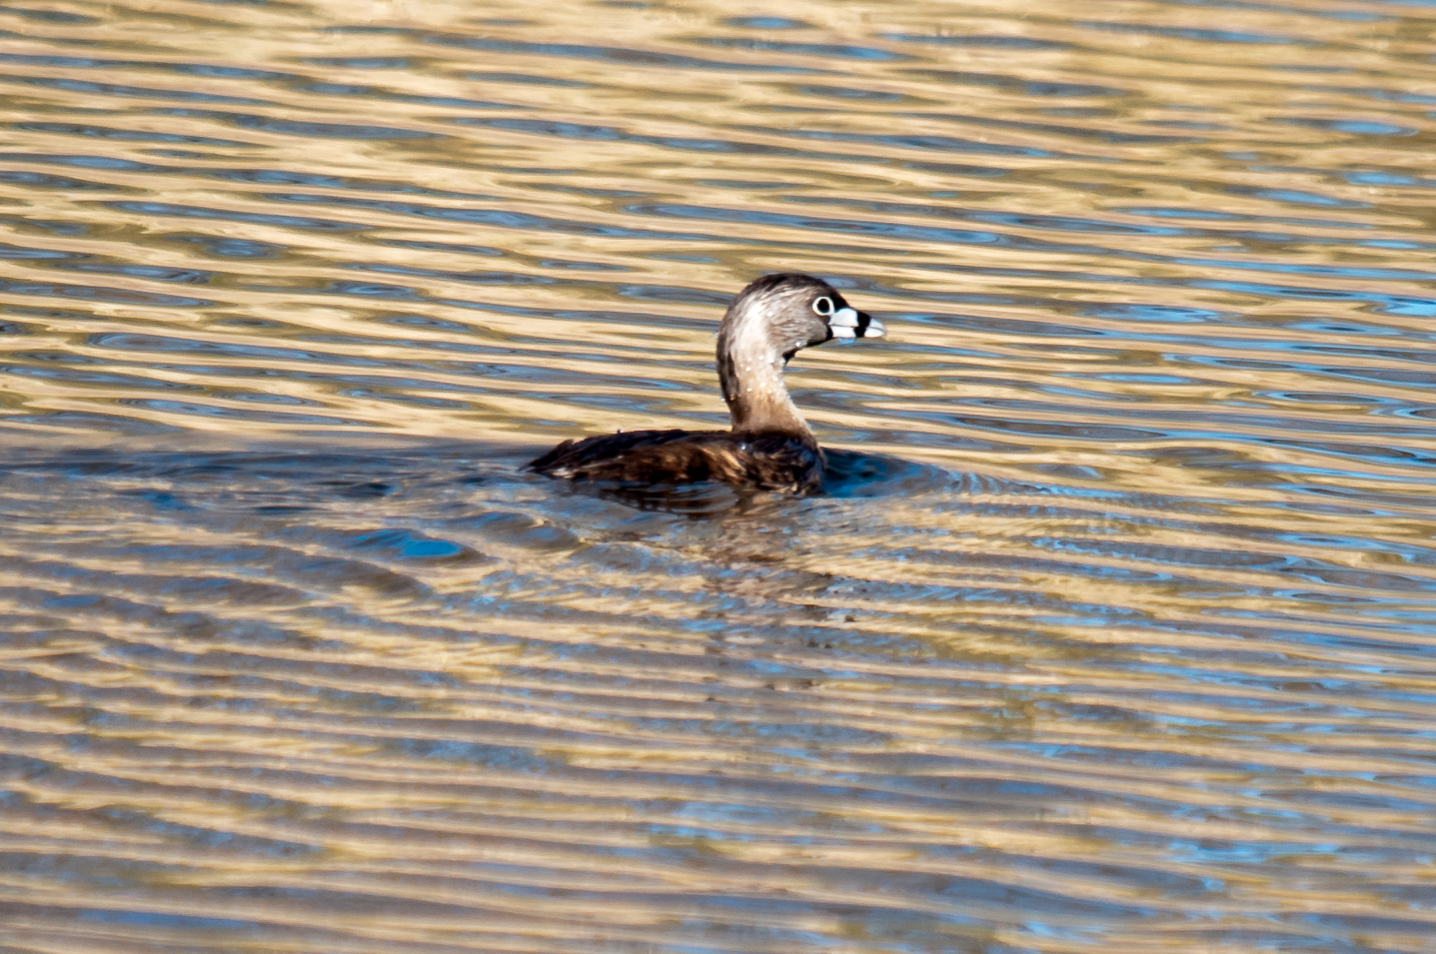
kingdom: Animalia
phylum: Chordata
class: Aves
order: Podicipediformes
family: Podicipedidae
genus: Podilymbus
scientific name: Podilymbus podiceps
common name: Pied-billed grebe
